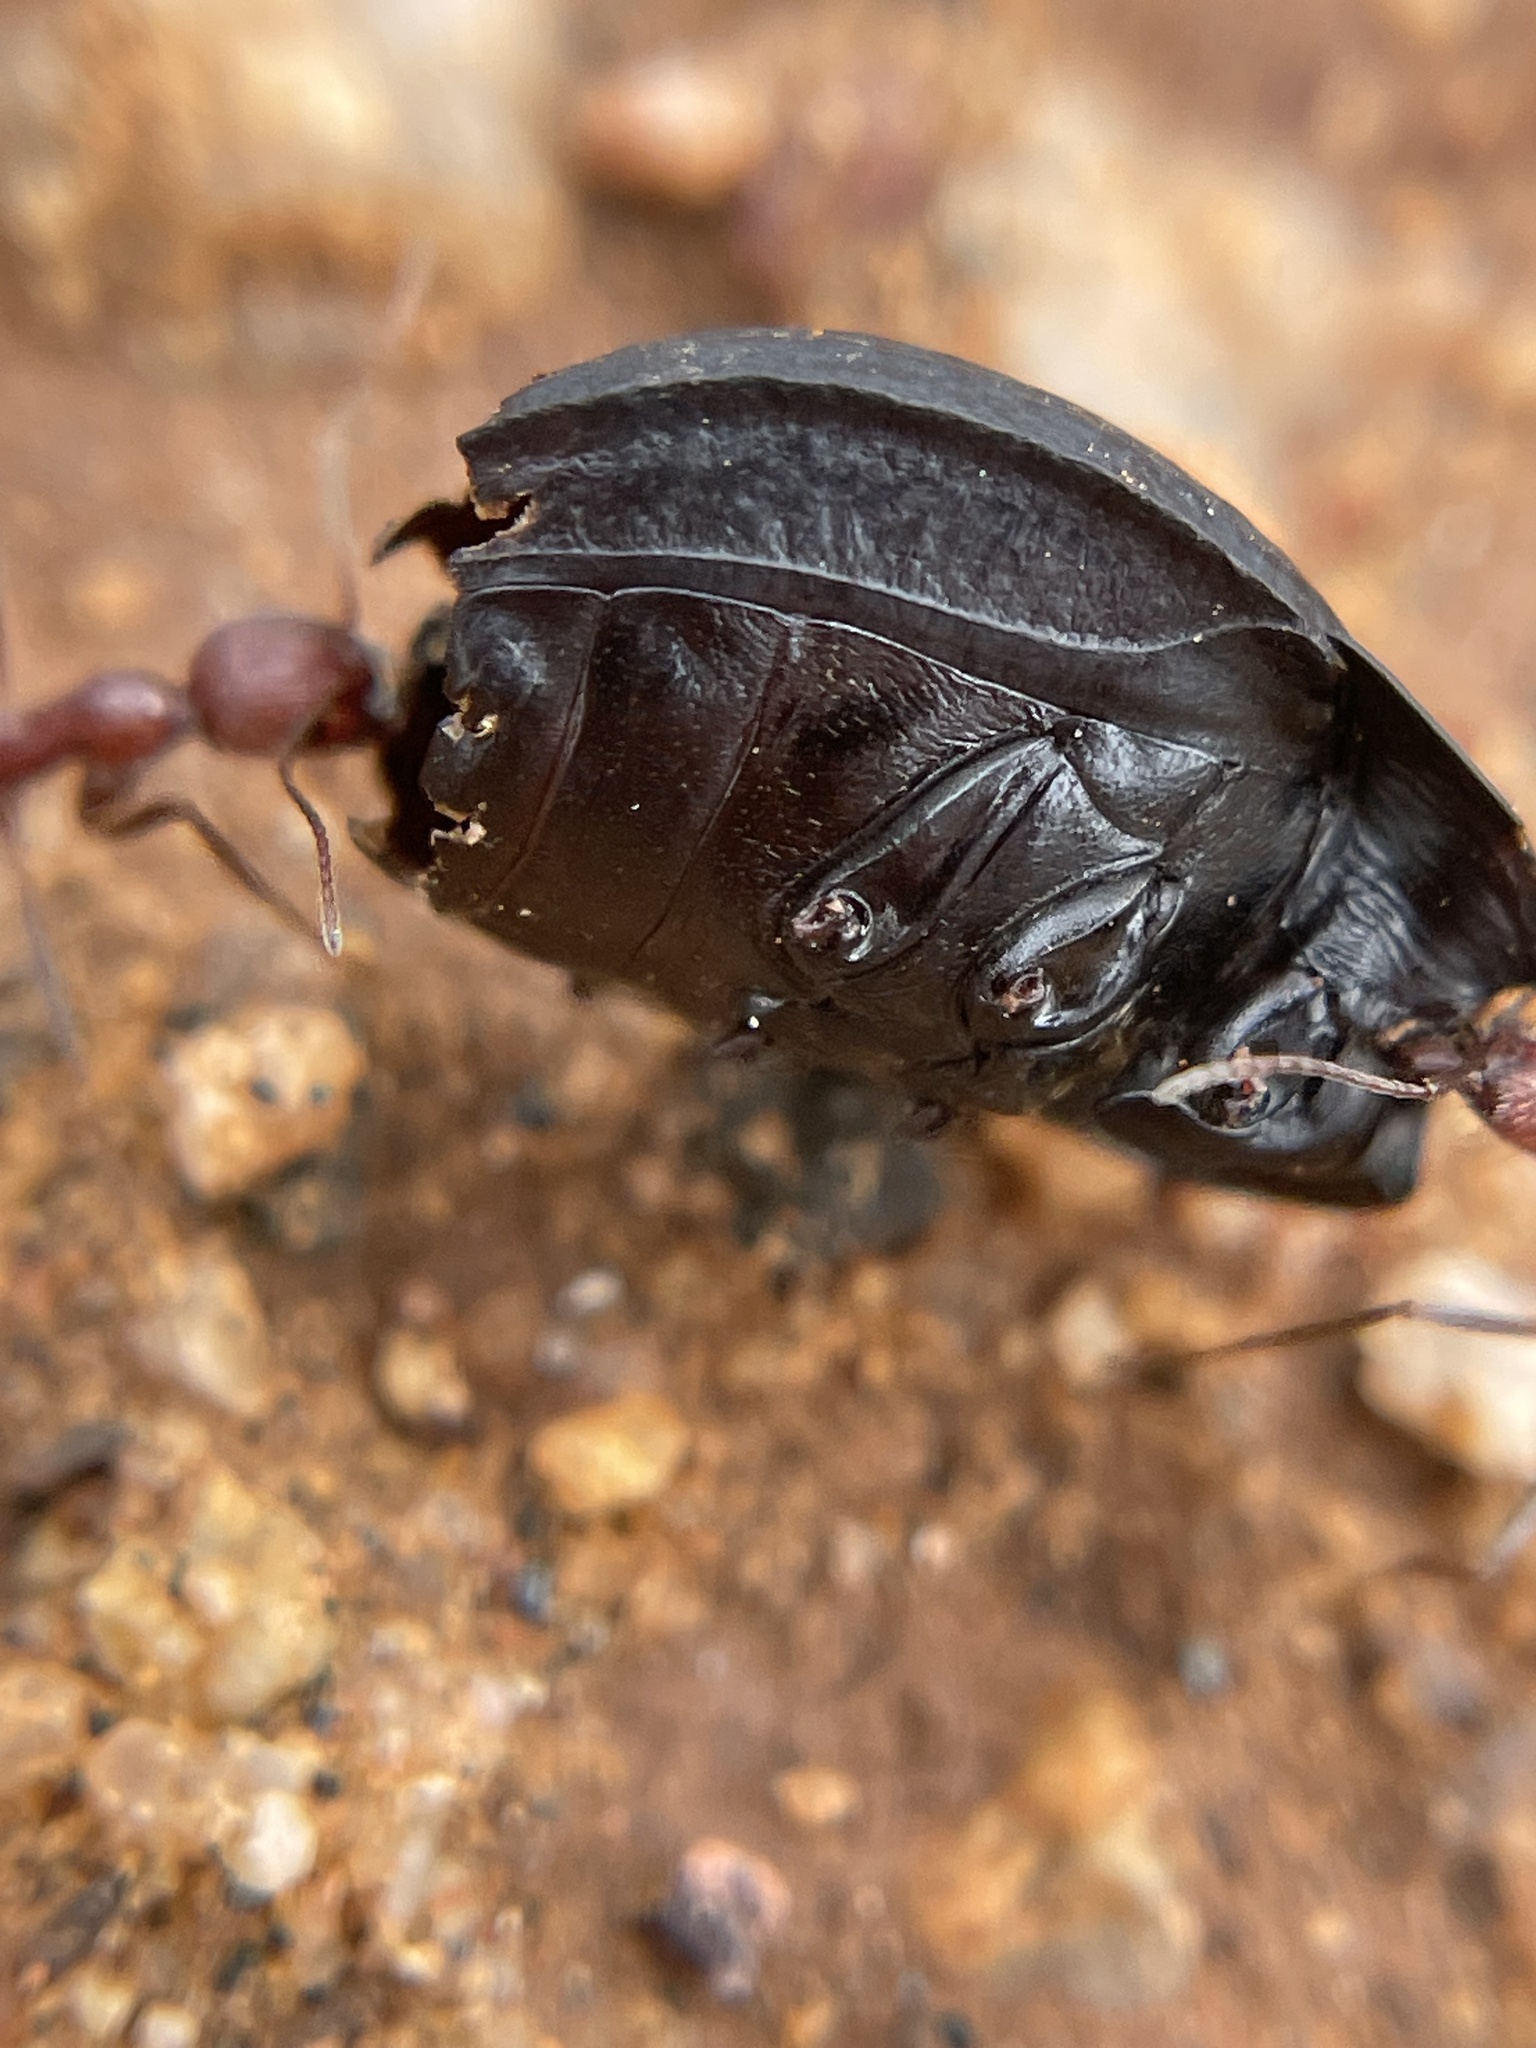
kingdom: Animalia
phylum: Arthropoda
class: Insecta
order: Hymenoptera
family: Formicidae
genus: Novomessor
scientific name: Novomessor albisetosa
